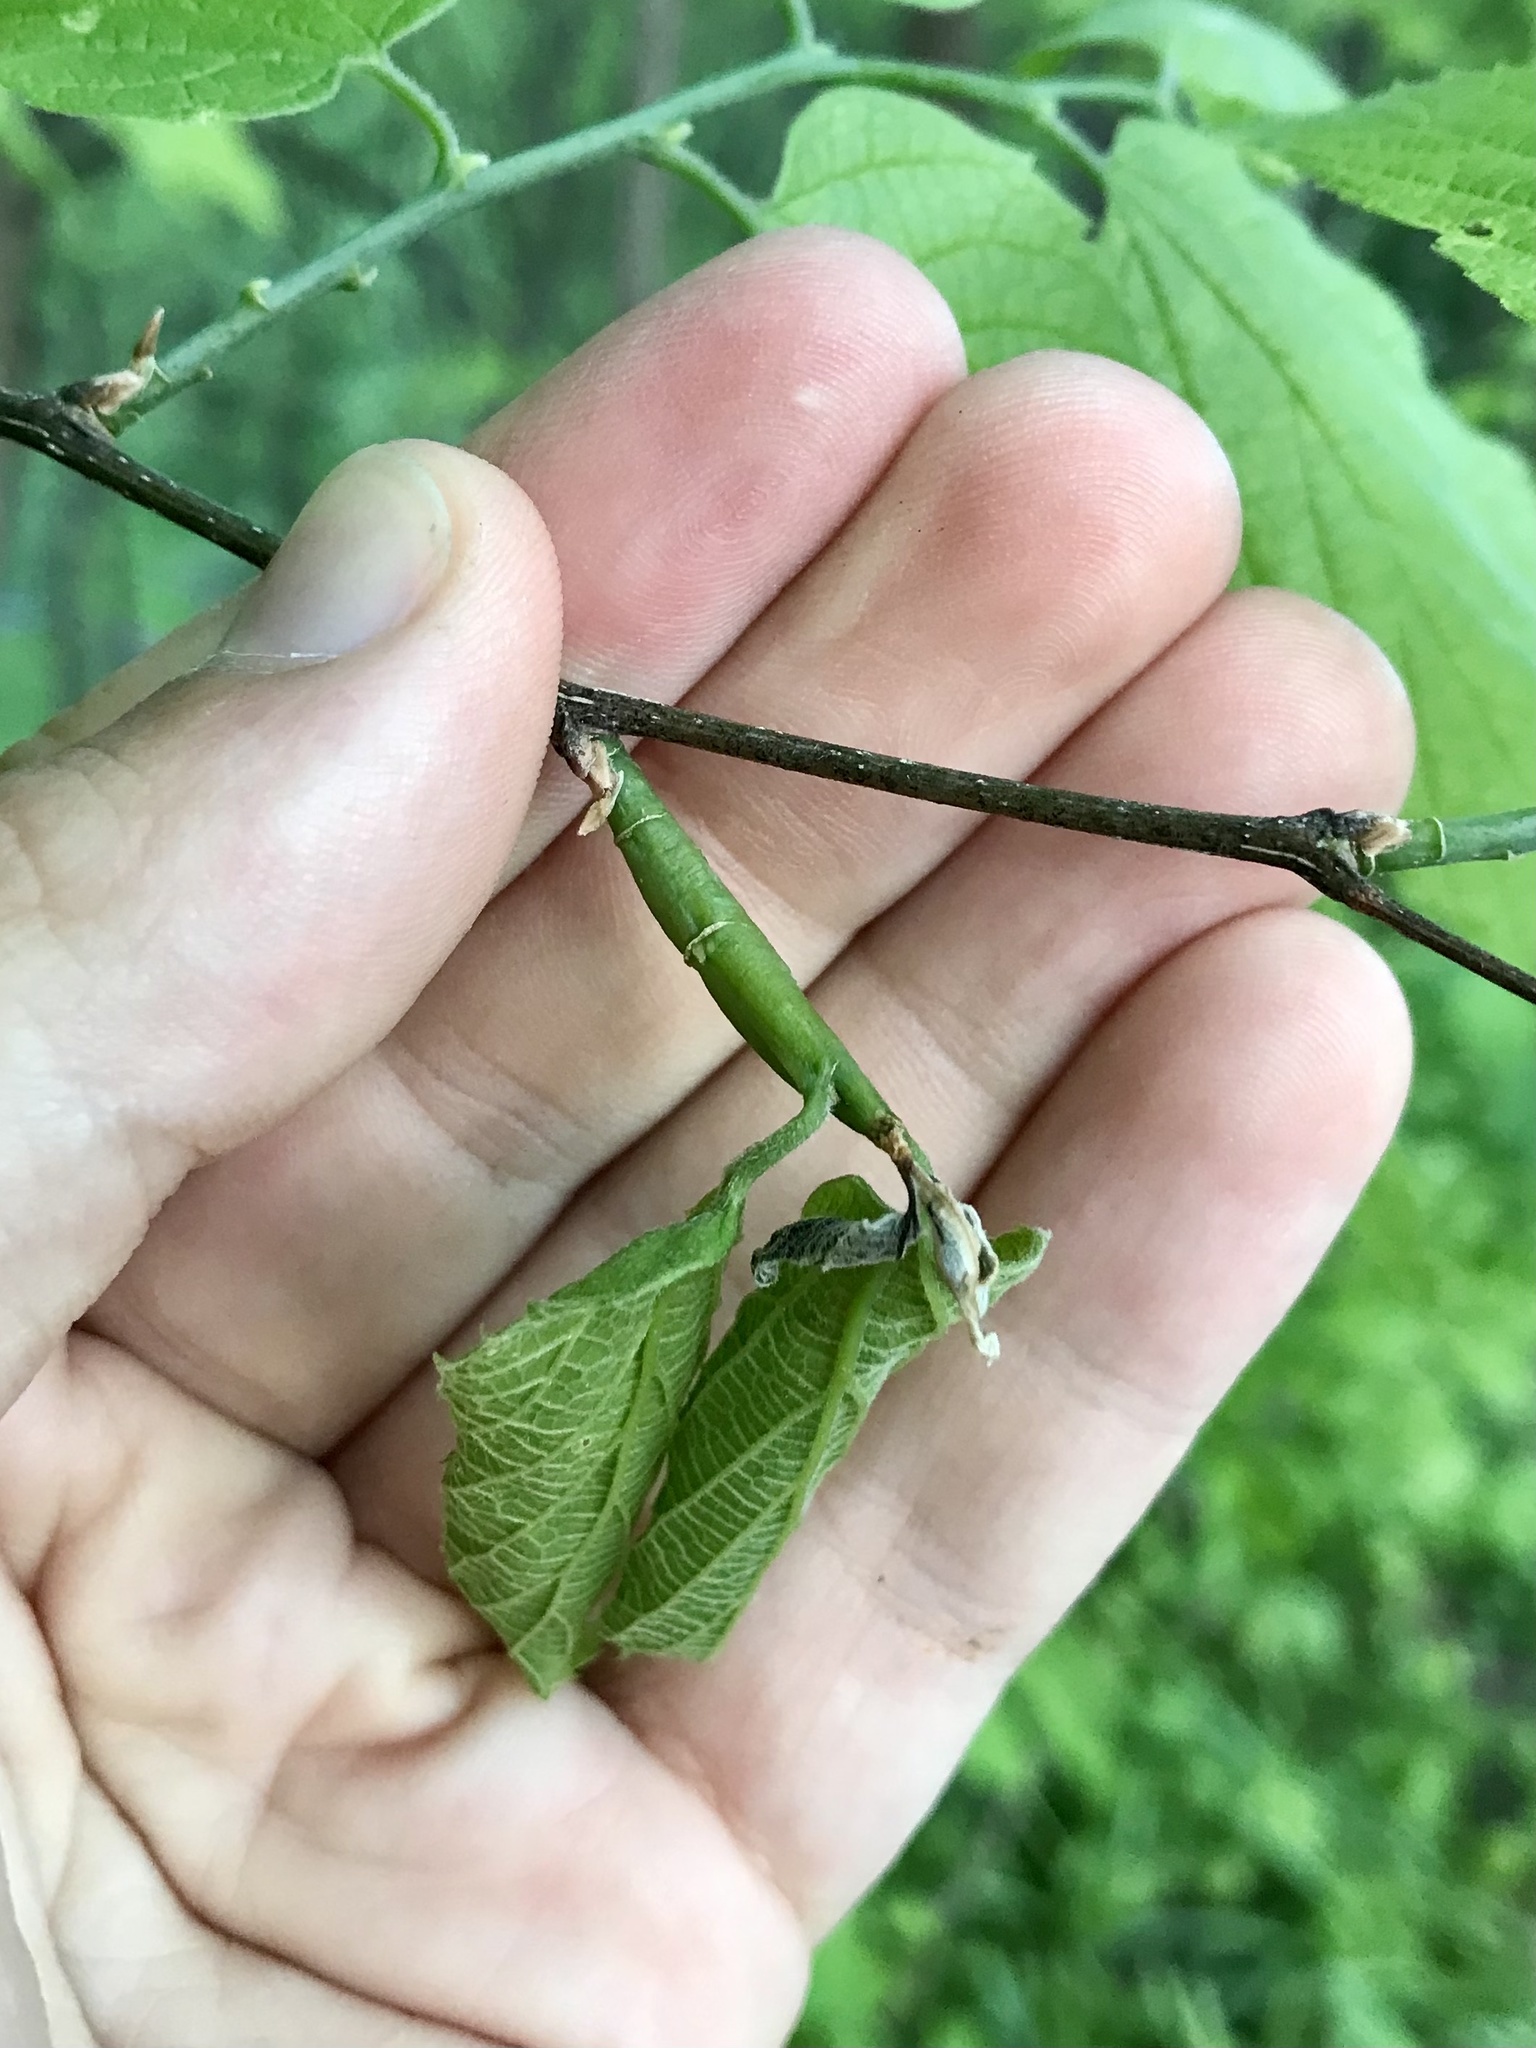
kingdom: Animalia
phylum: Arthropoda
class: Insecta
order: Diptera
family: Agromyzidae
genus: Agromyza
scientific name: Agromyza deserta
